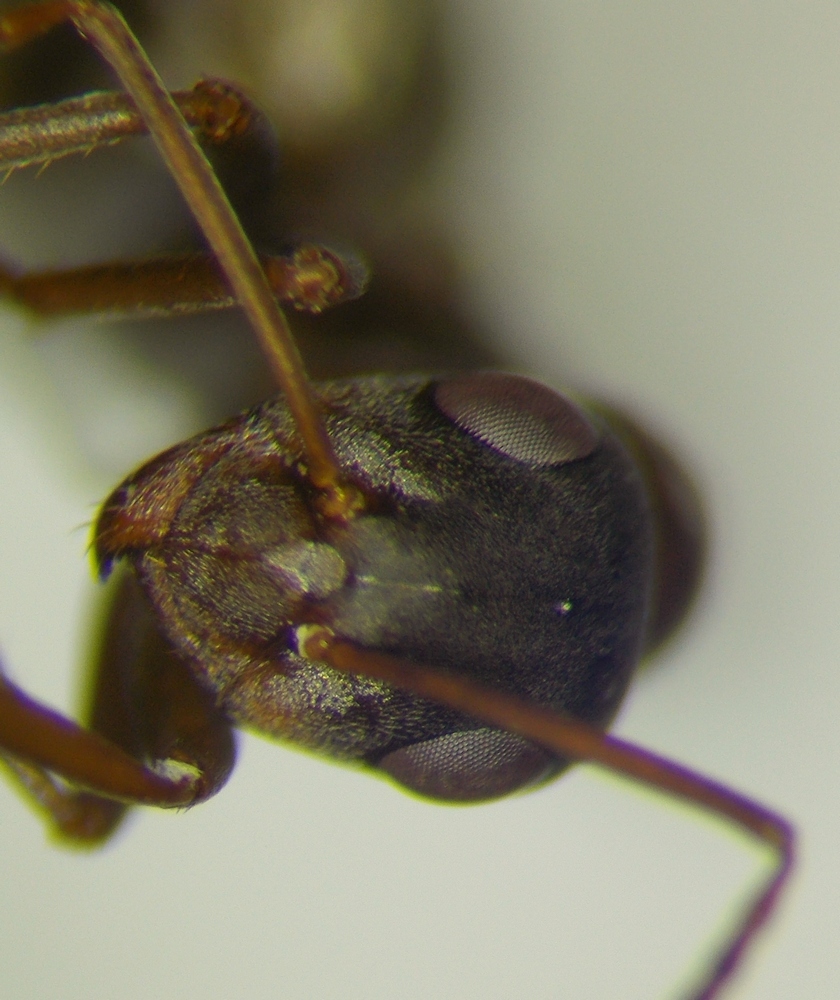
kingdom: Animalia
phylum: Arthropoda
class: Insecta
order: Hymenoptera
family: Formicidae
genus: Formica
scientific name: Formica cunicularia
